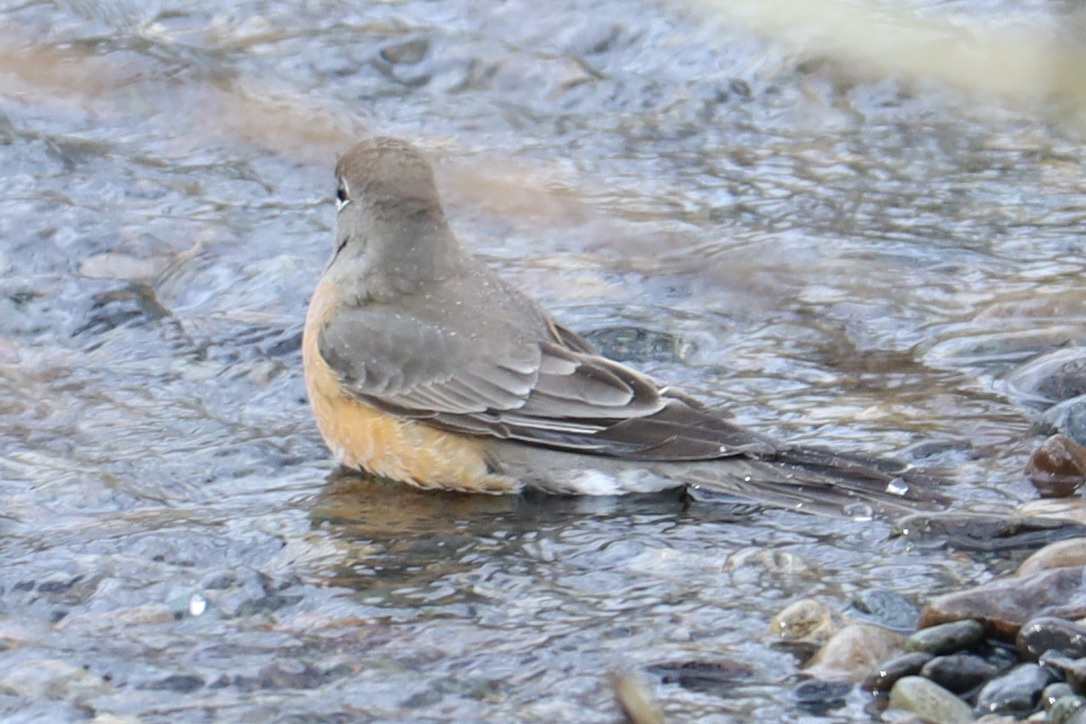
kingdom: Animalia
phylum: Chordata
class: Aves
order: Passeriformes
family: Turdidae
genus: Turdus
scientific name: Turdus migratorius
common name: American robin
